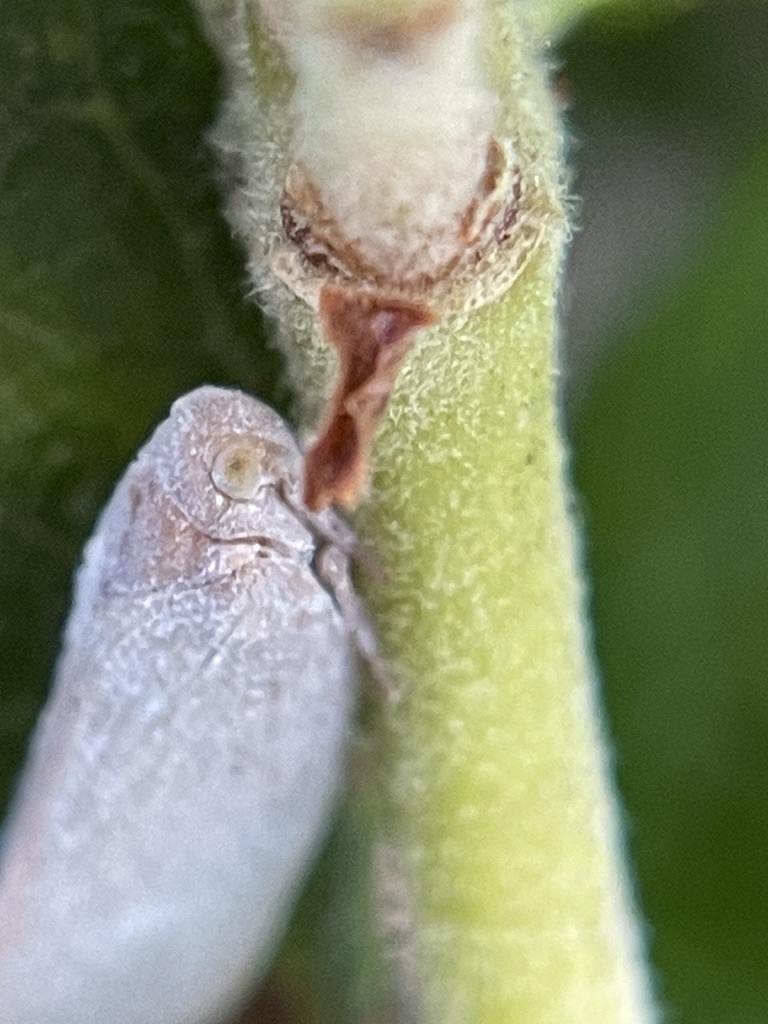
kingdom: Animalia
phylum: Arthropoda
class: Insecta
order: Hemiptera
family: Flatidae
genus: Anzora
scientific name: Anzora unicolor
